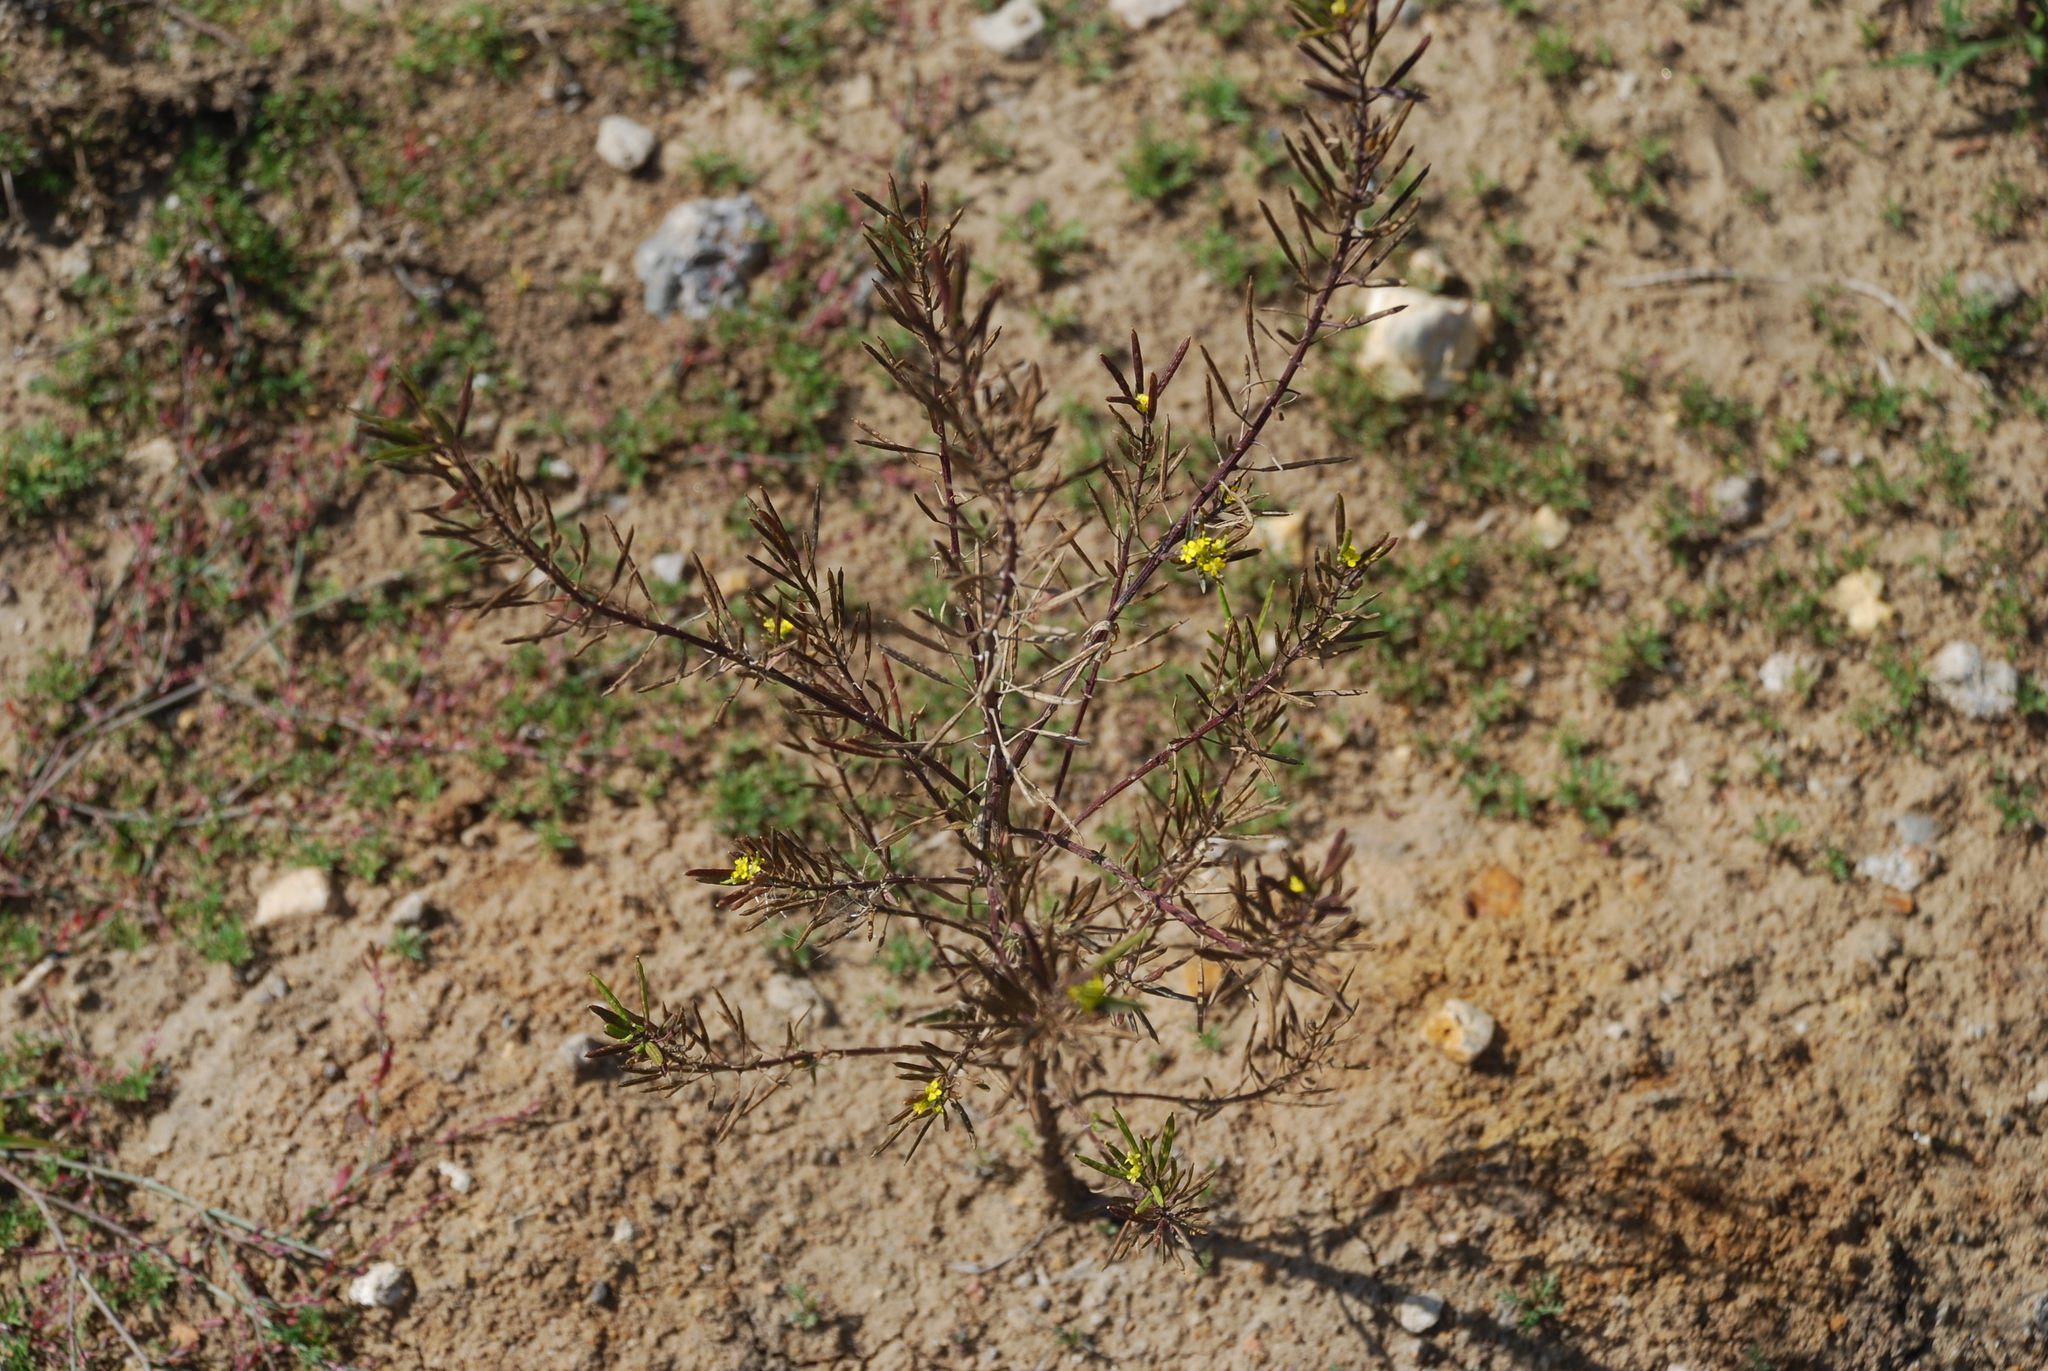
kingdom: Plantae
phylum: Tracheophyta
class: Magnoliopsida
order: Brassicales
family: Brassicaceae
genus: Erysimum
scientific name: Erysimum cheiranthoides
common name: Treacle mustard
